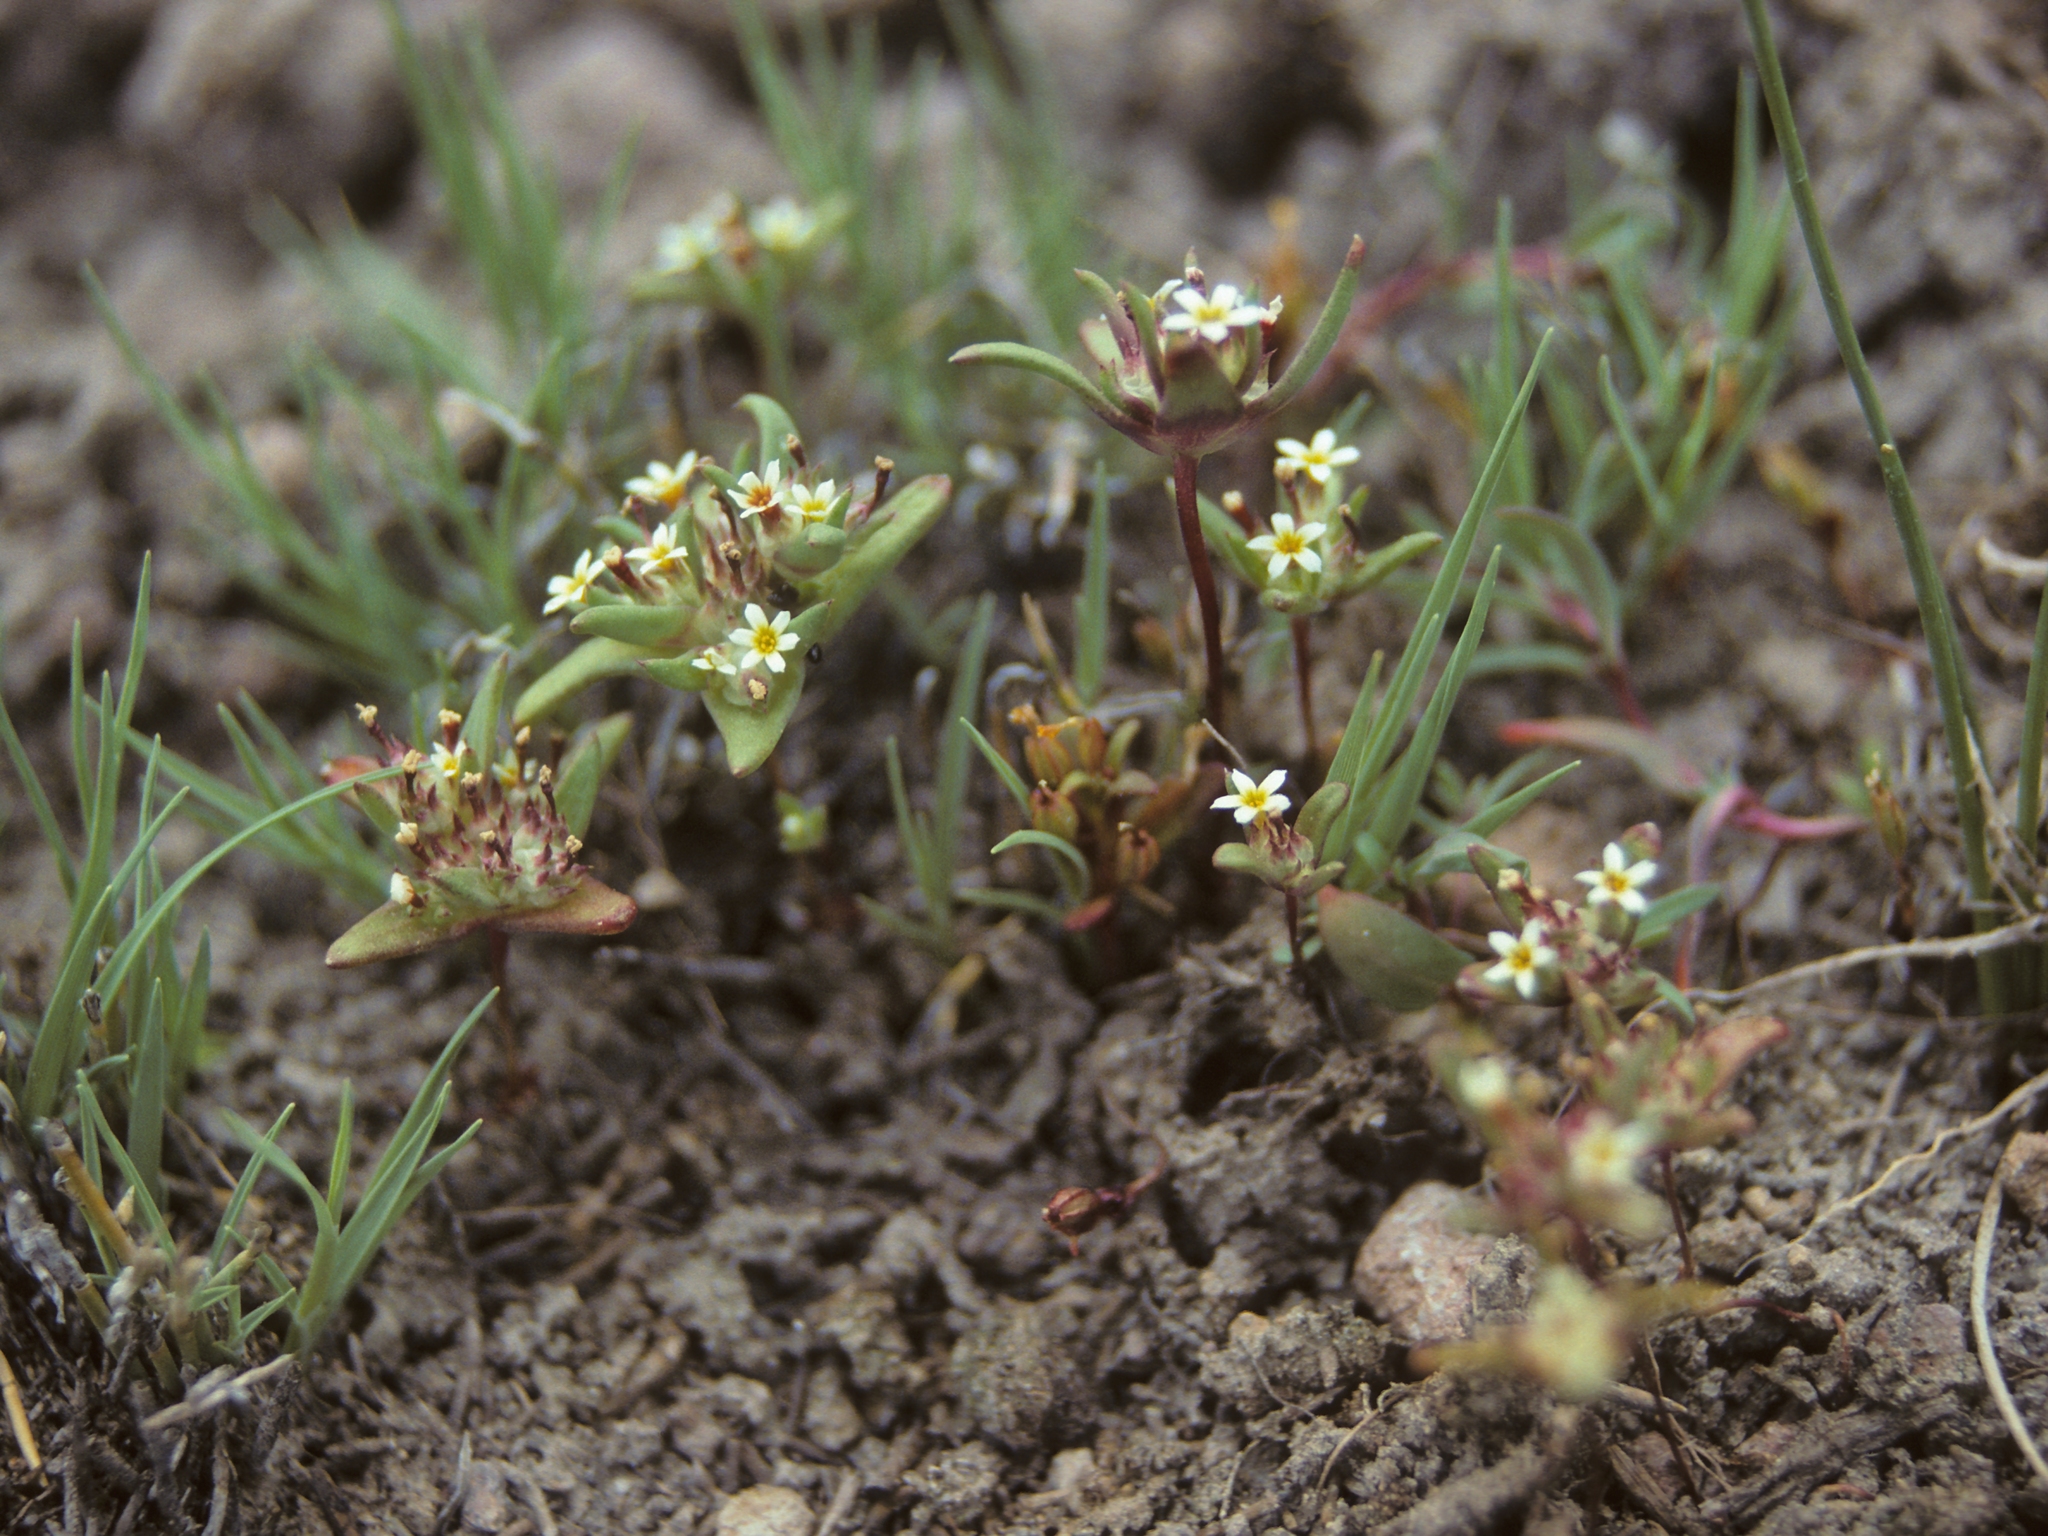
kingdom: Plantae
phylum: Tracheophyta
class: Magnoliopsida
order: Ericales
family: Polemoniaceae
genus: Gymnosteris
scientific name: Gymnosteris parvula
